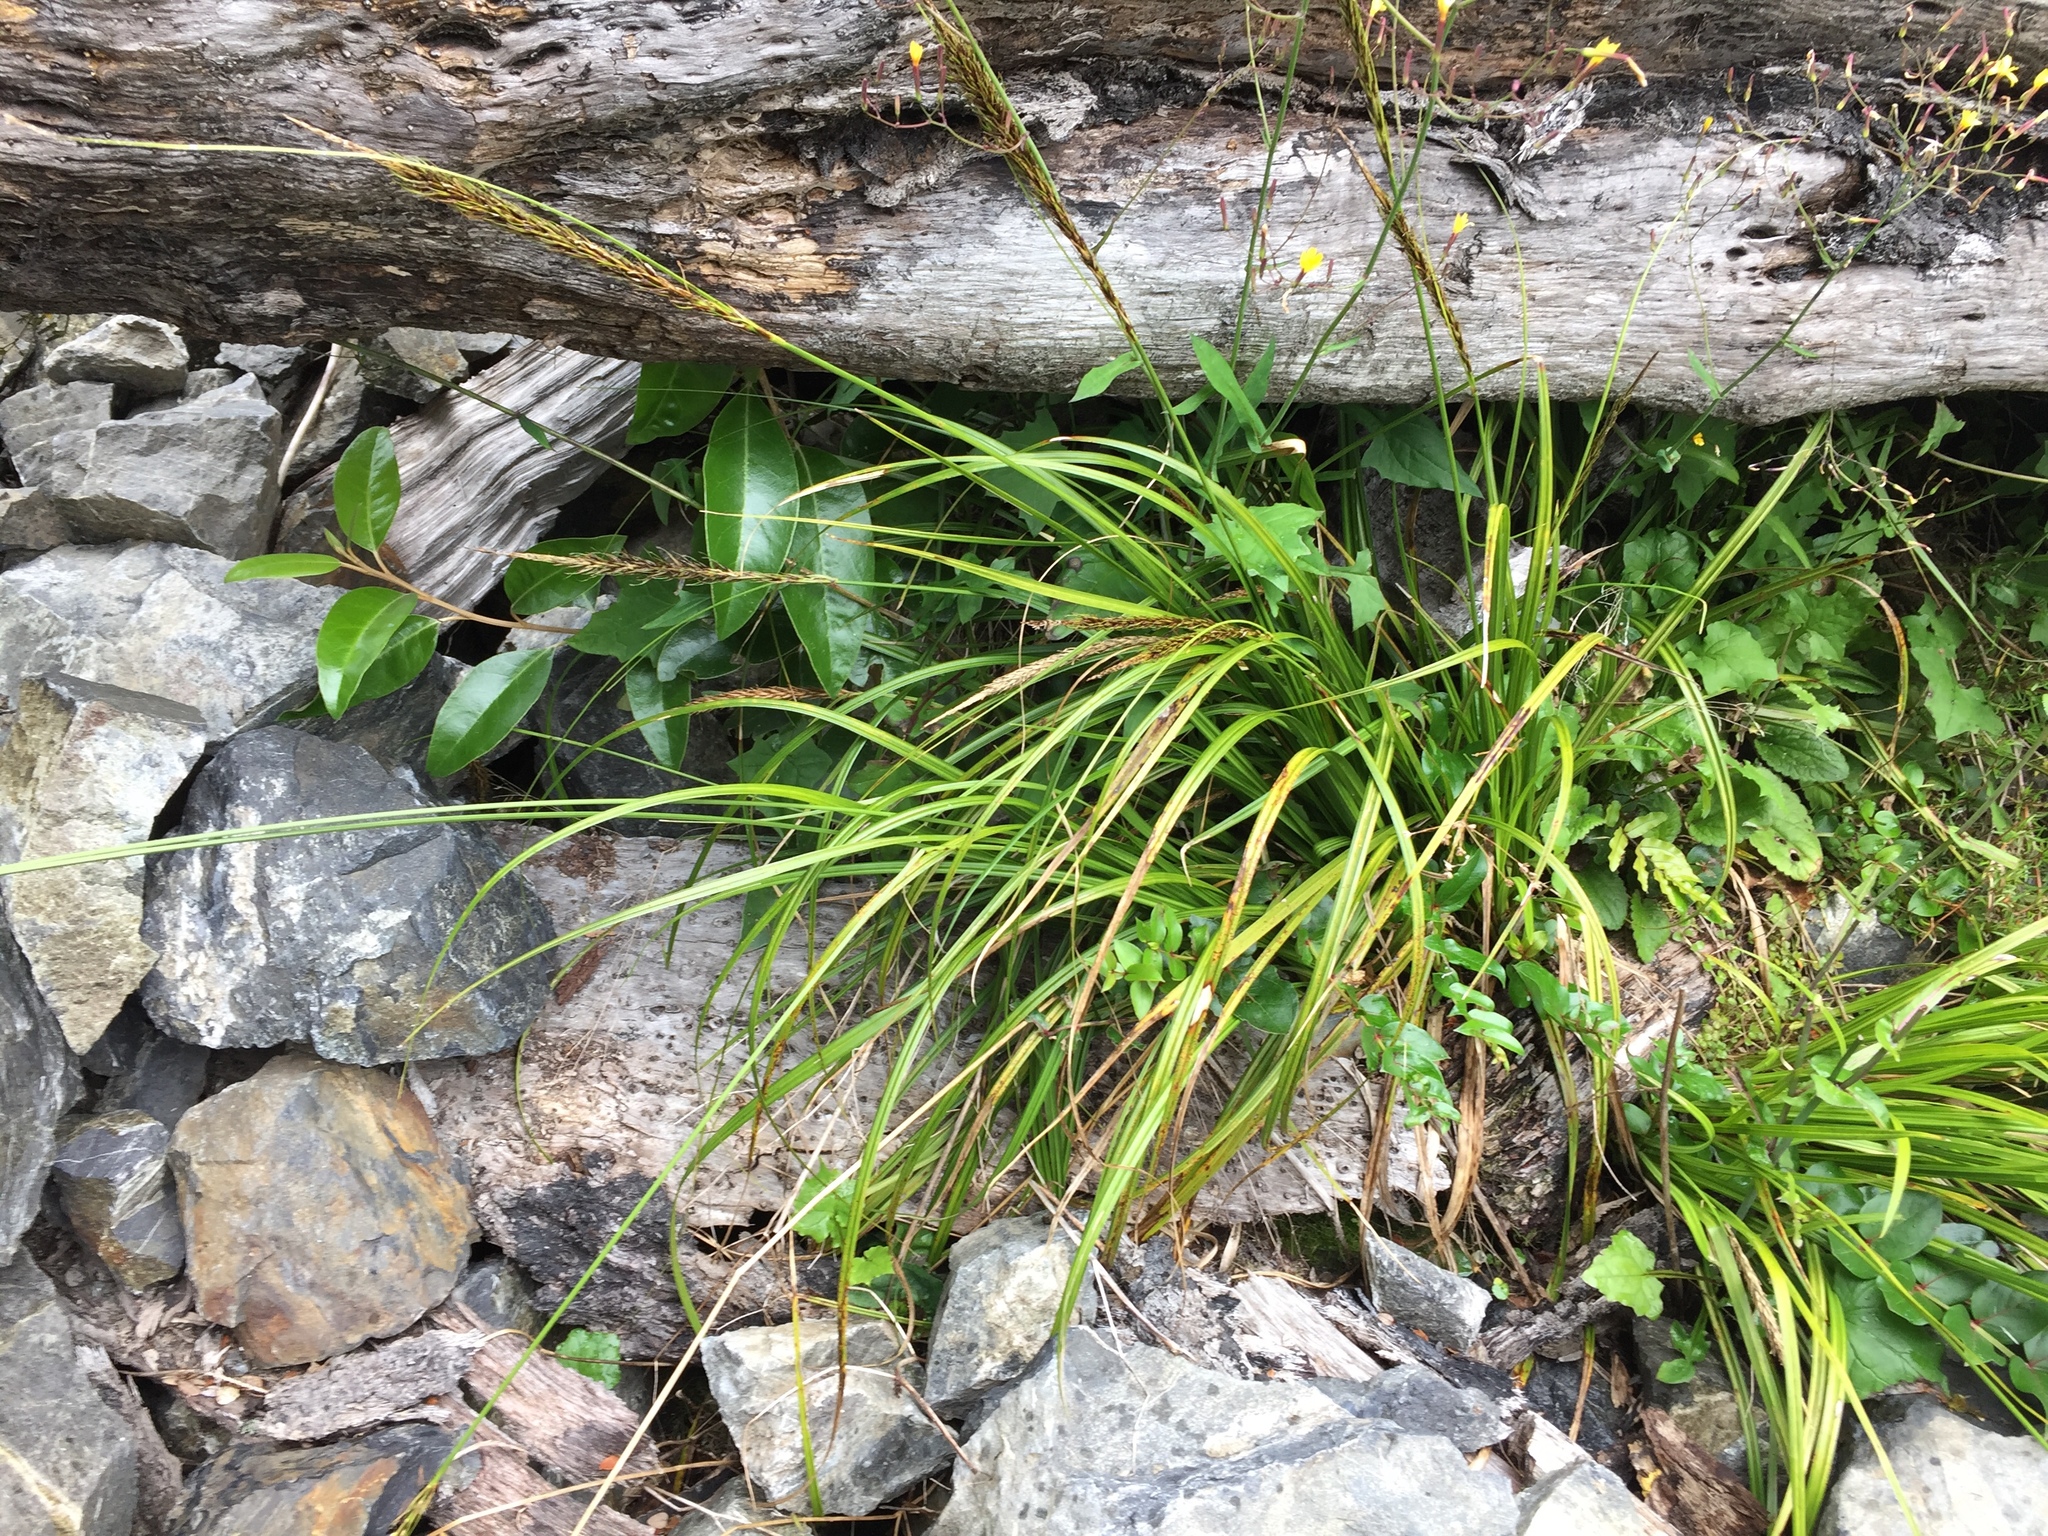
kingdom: Plantae
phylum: Tracheophyta
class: Liliopsida
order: Poales
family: Cyperaceae
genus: Carex
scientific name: Carex corynoidea
